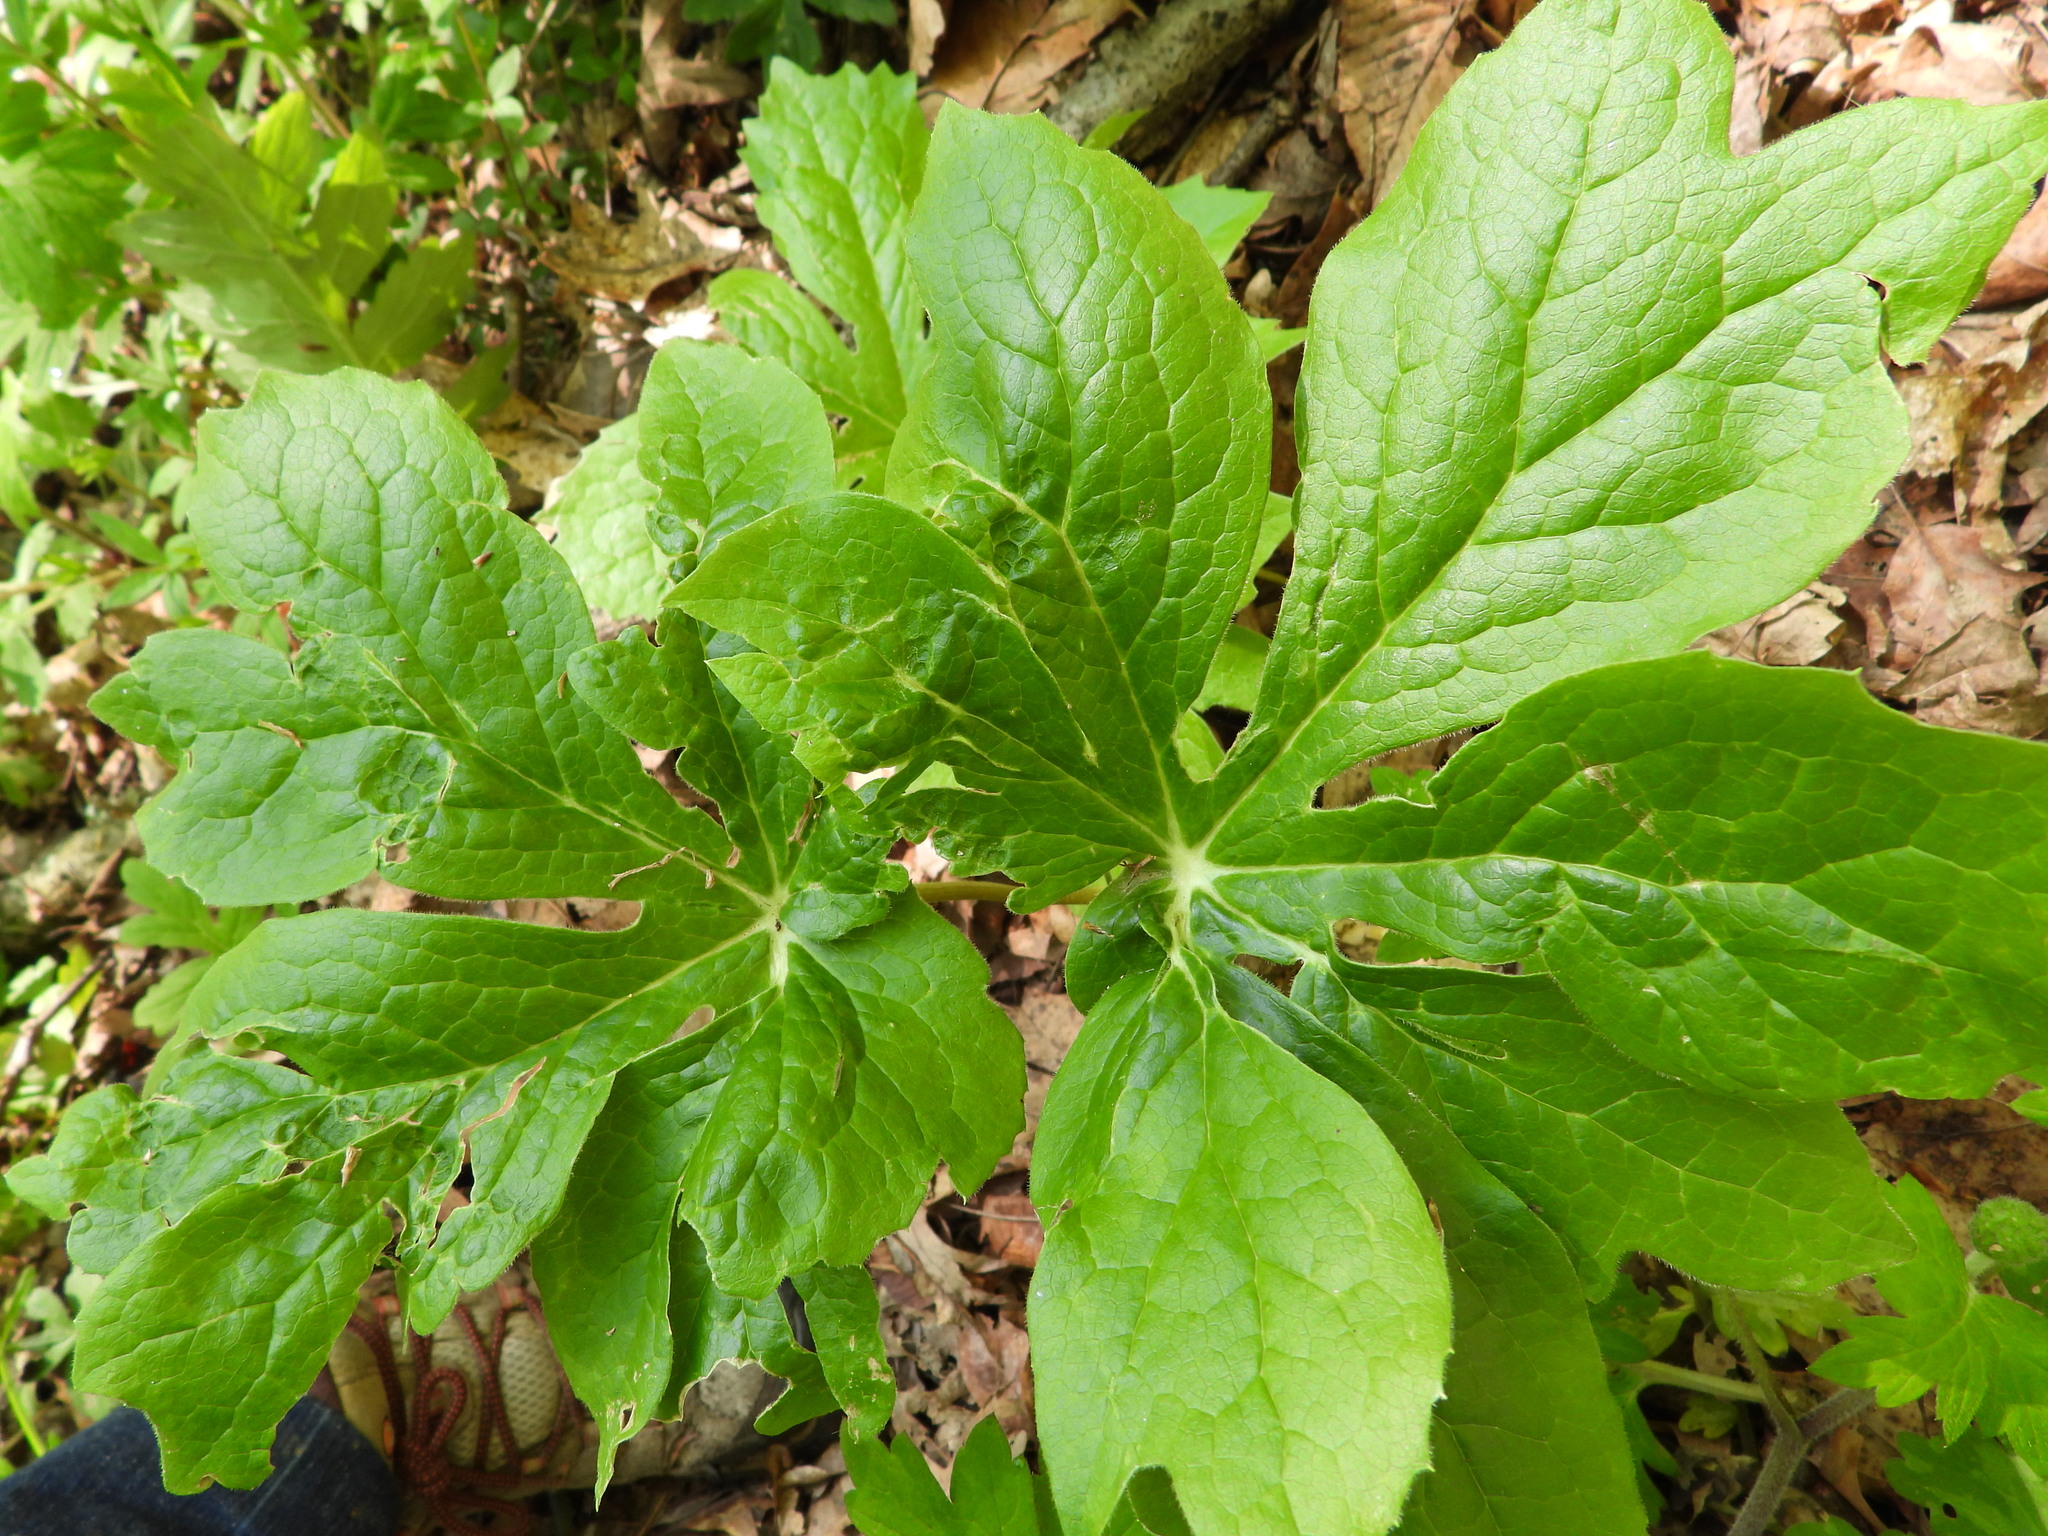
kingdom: Plantae
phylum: Tracheophyta
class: Magnoliopsida
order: Ranunculales
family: Berberidaceae
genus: Podophyllum
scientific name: Podophyllum peltatum
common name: Wild mandrake
